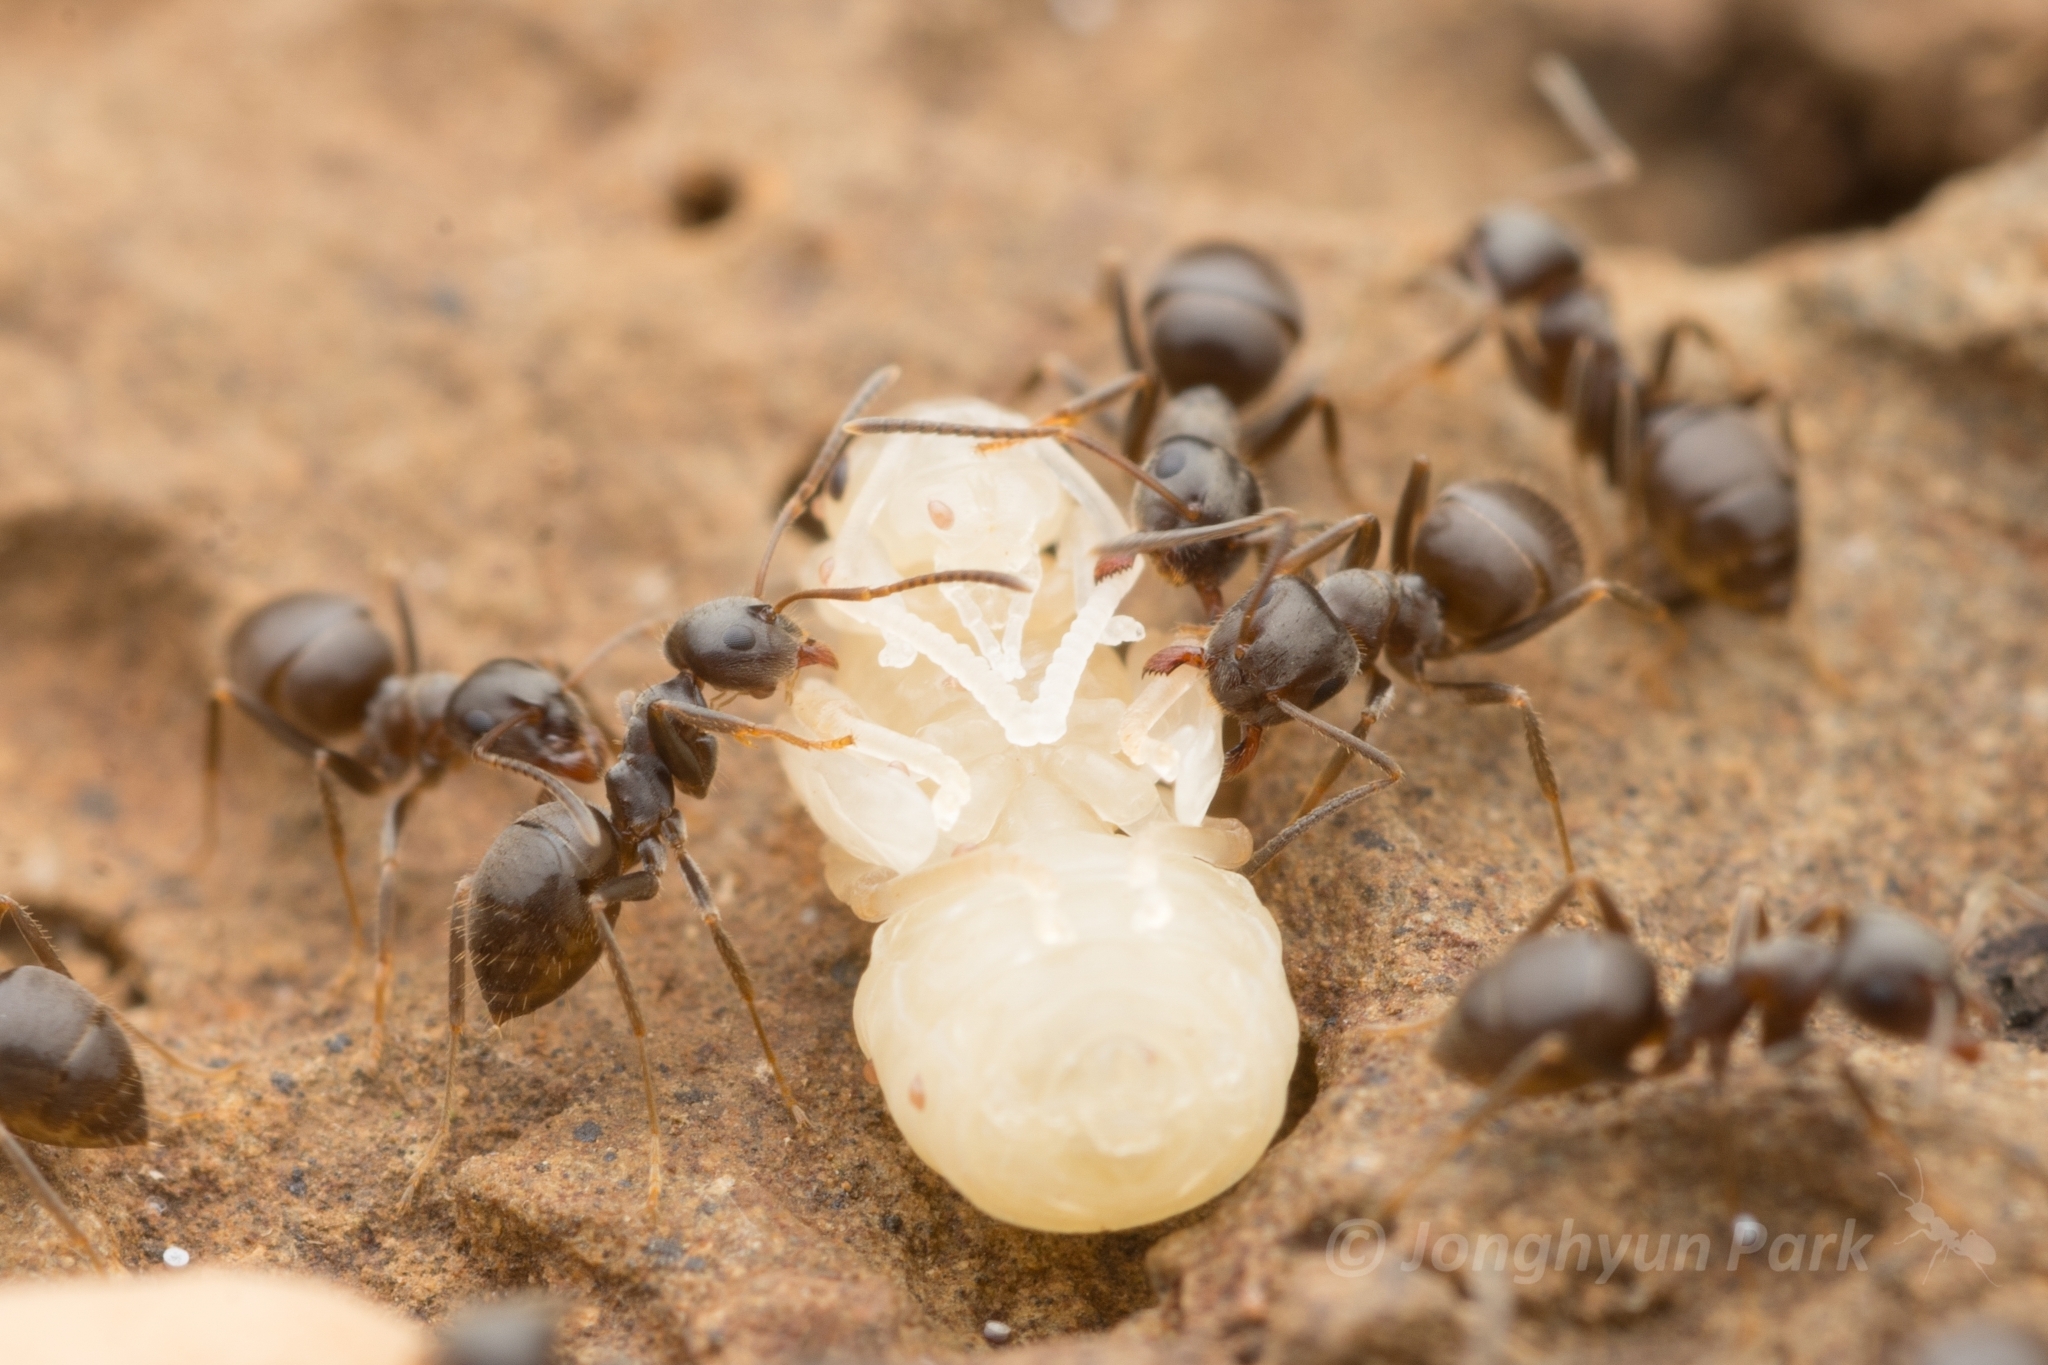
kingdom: Animalia
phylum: Arthropoda
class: Insecta
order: Hymenoptera
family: Formicidae
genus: Lasius
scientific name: Lasius japonicus
